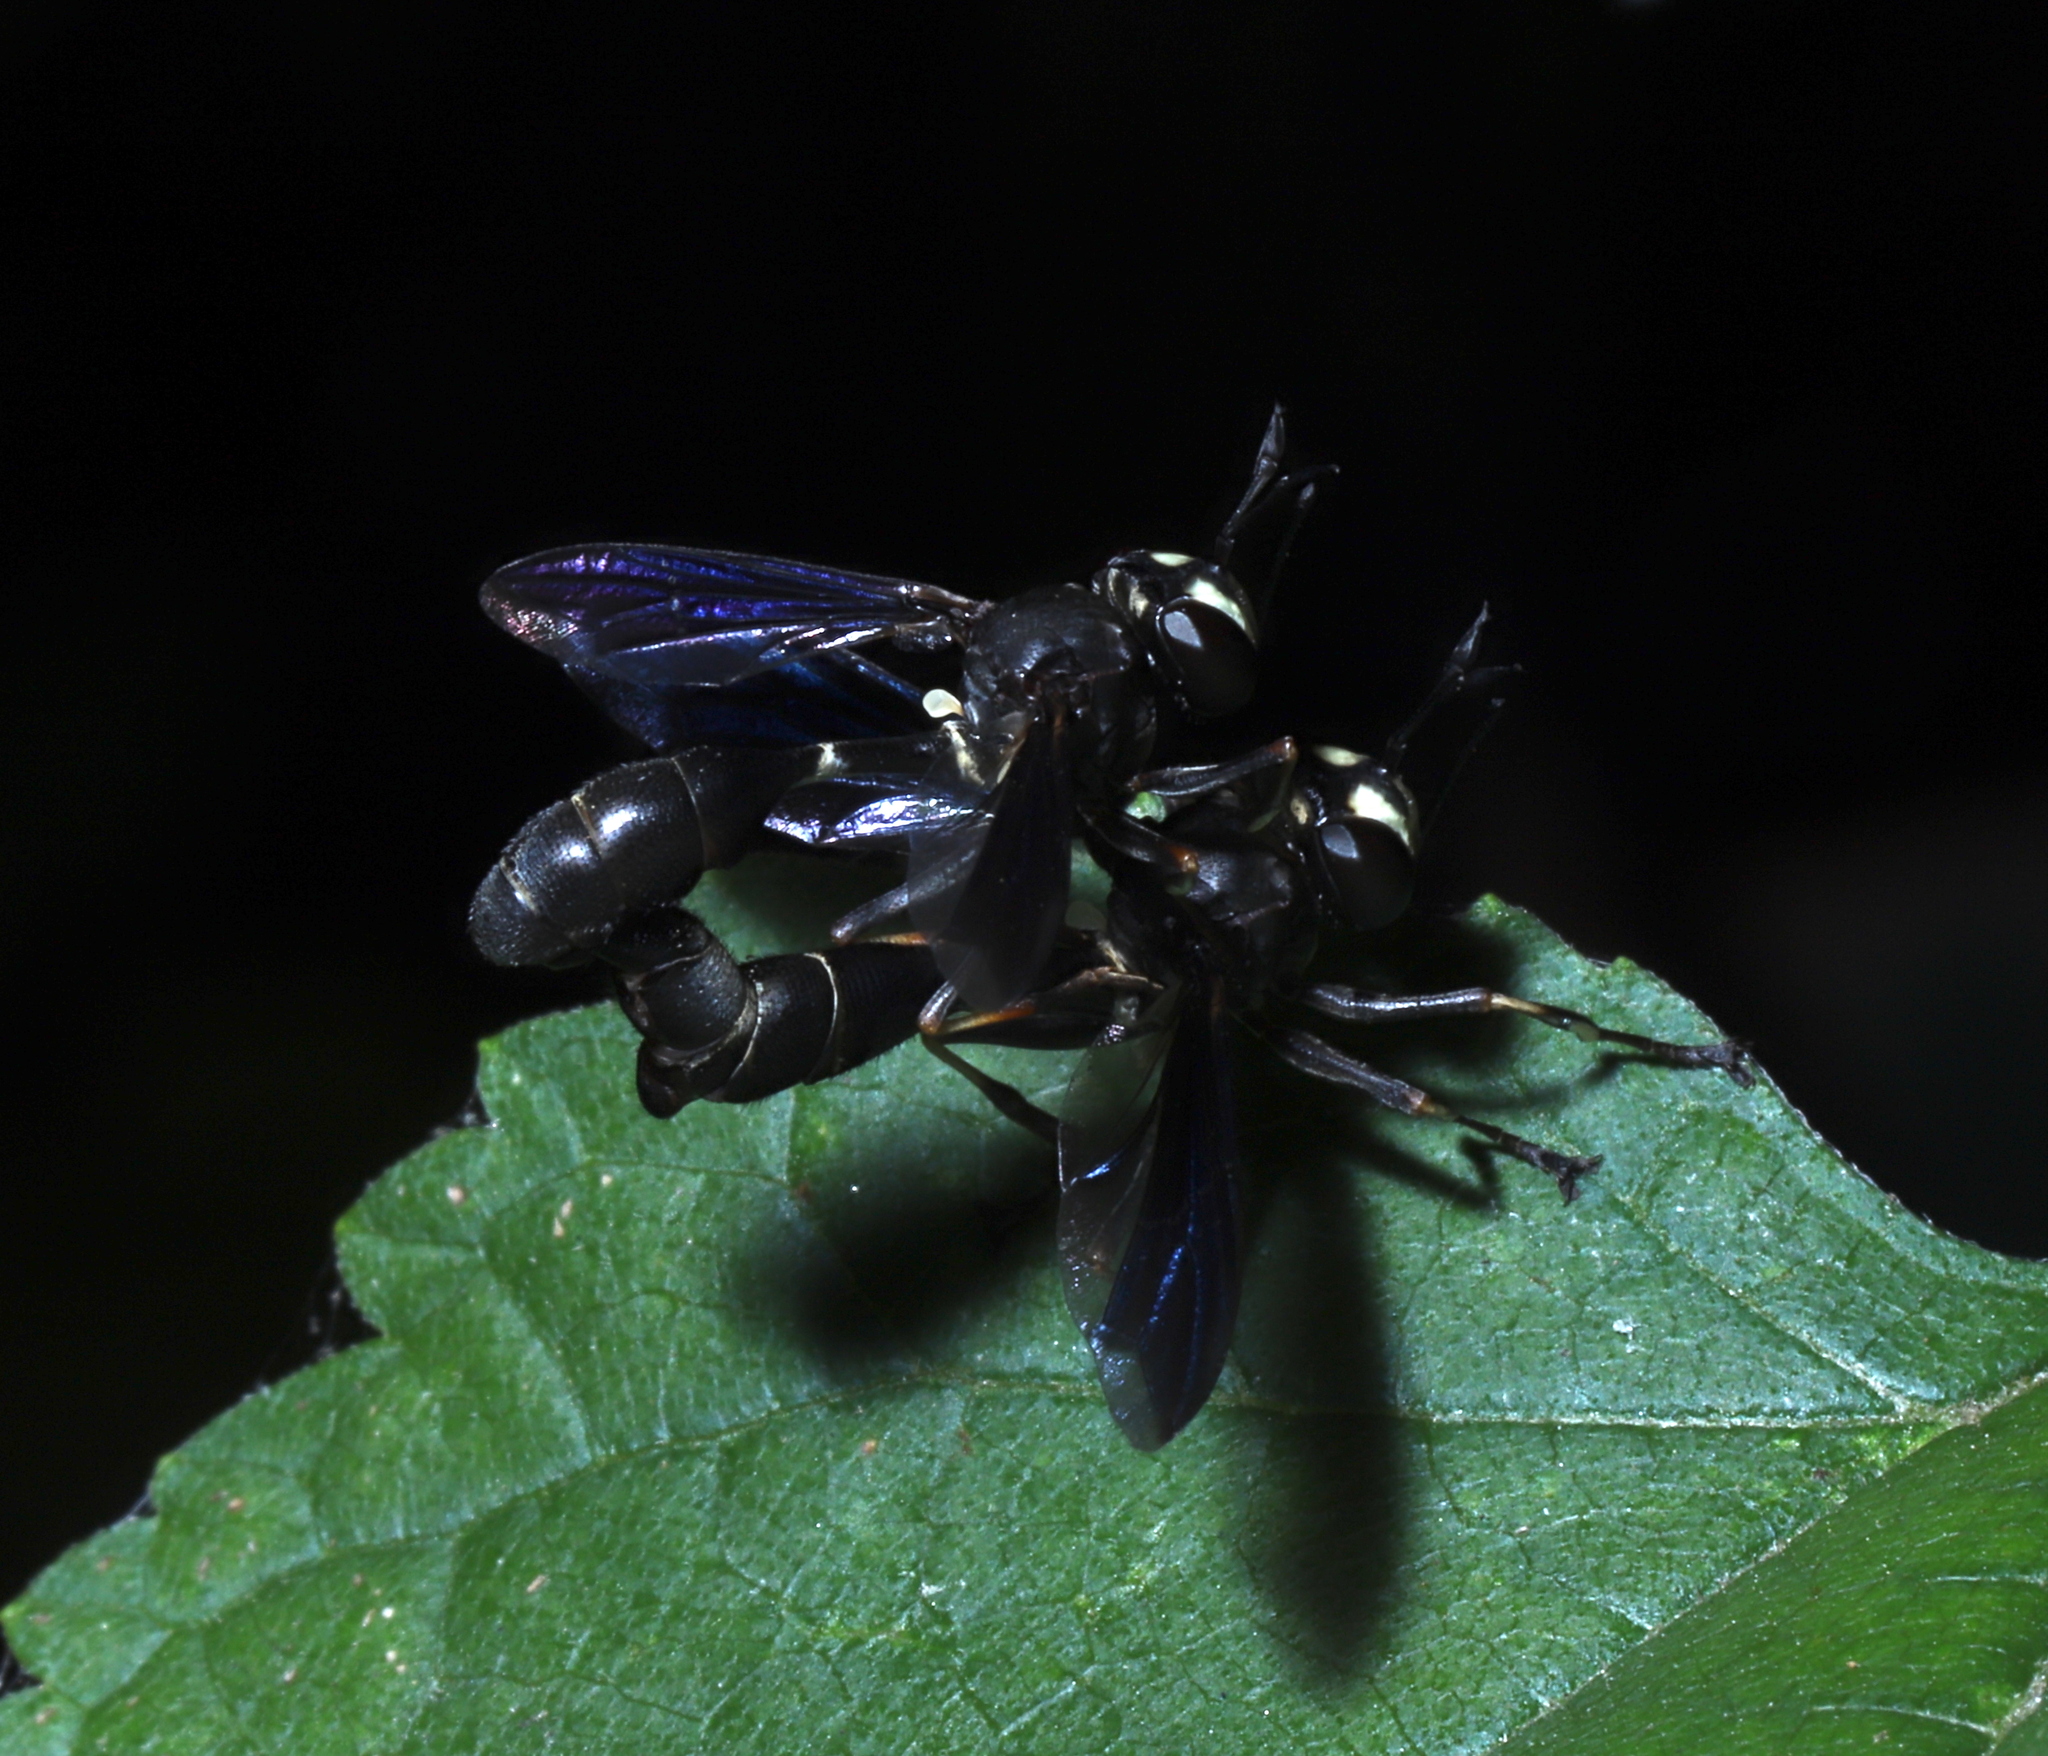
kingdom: Animalia
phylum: Arthropoda
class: Insecta
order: Diptera
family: Conopidae
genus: Physocephala
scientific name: Physocephala tibialis
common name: Common eastern physocephala
